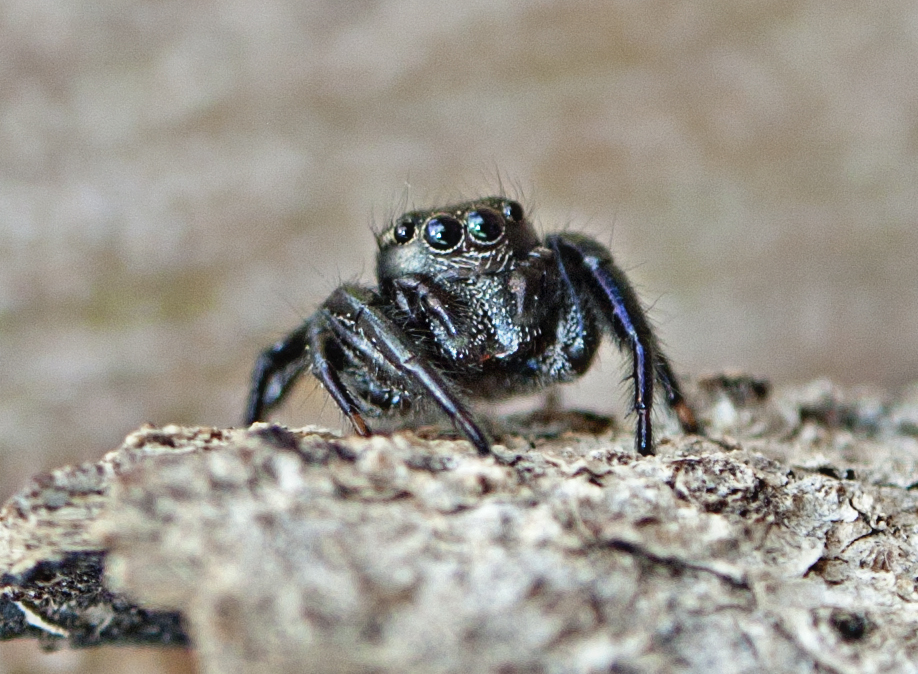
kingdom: Animalia
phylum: Arthropoda
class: Arachnida
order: Araneae
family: Salticidae
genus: Zenodorus
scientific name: Zenodorus orbiculatus
